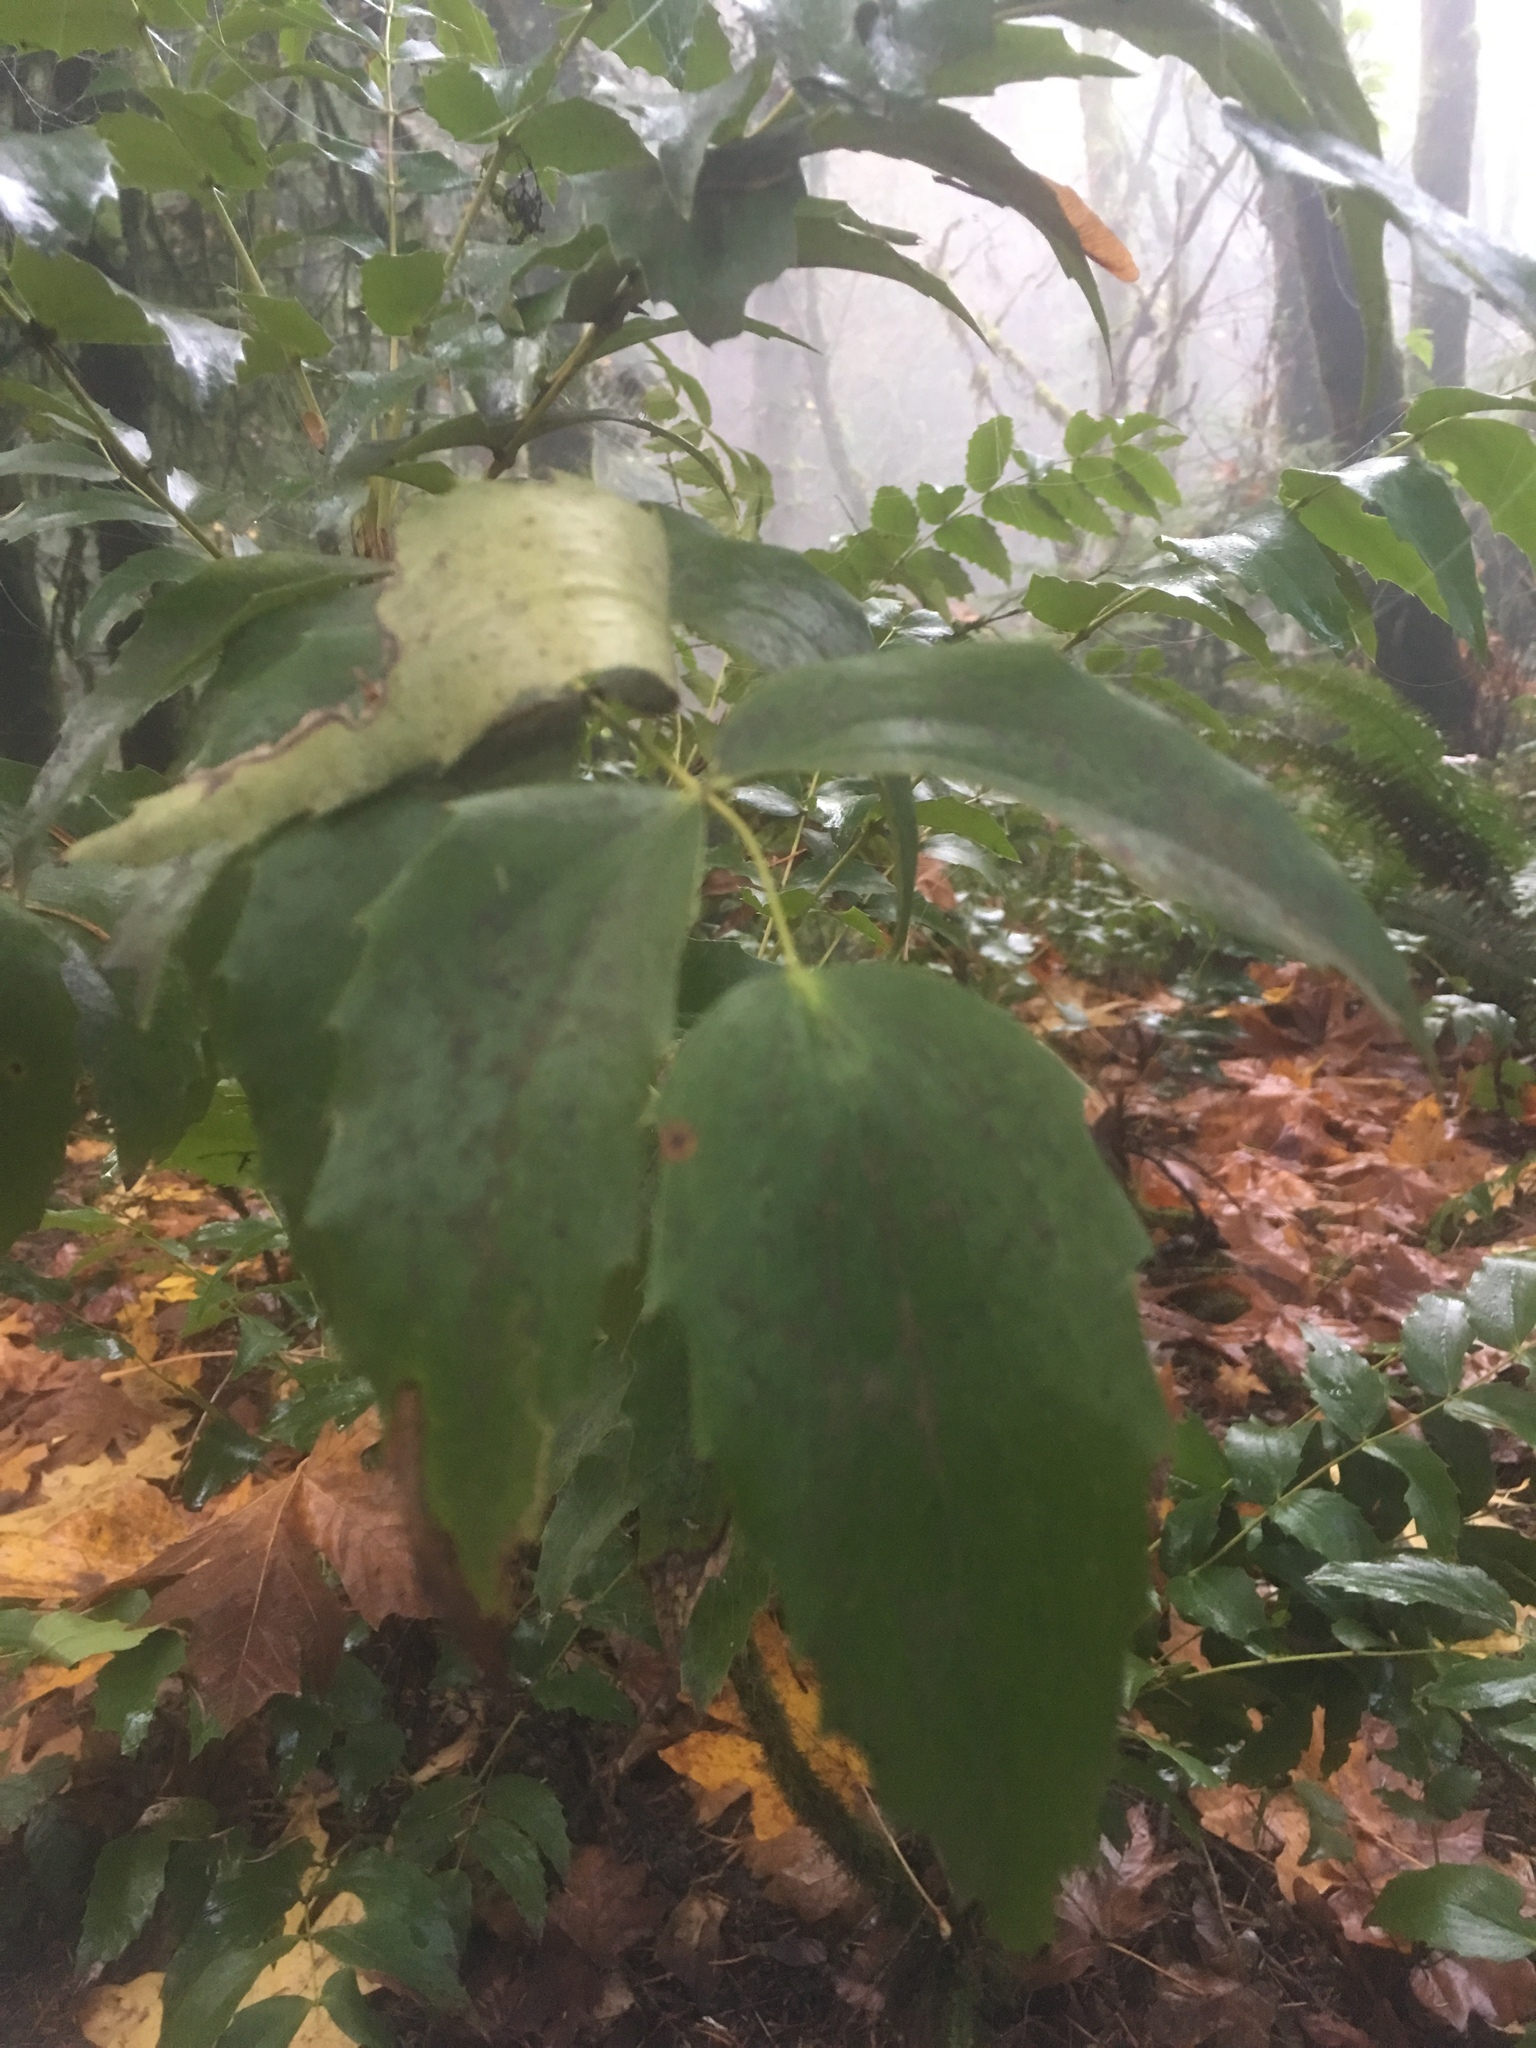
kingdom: Plantae
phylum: Tracheophyta
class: Magnoliopsida
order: Ranunculales
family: Berberidaceae
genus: Mahonia
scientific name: Mahonia nervosa
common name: Cascade oregon-grape
